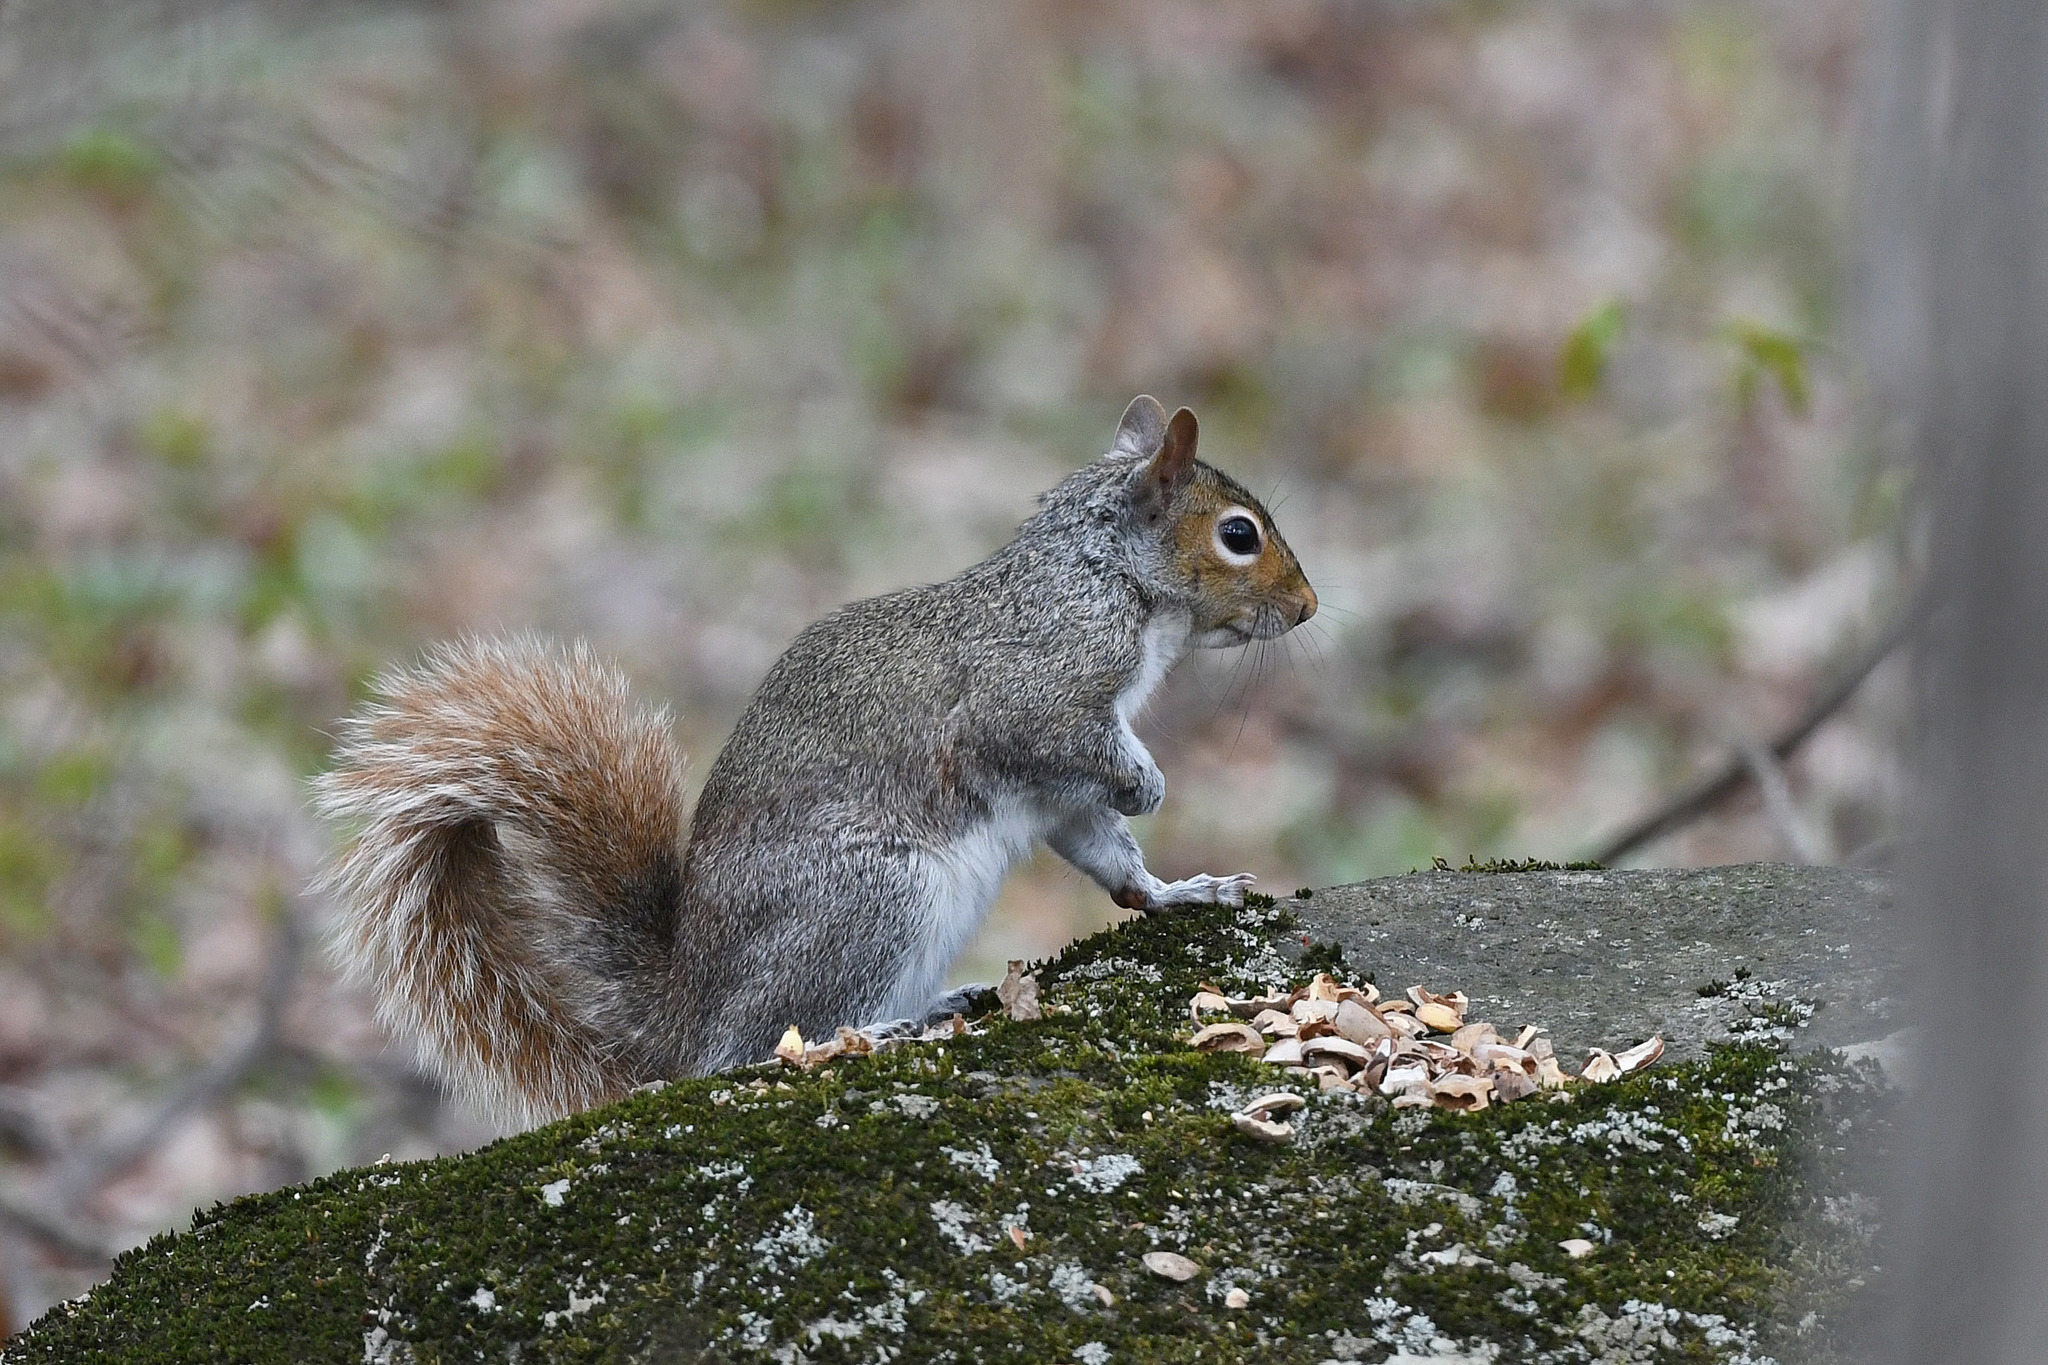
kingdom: Animalia
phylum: Chordata
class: Mammalia
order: Rodentia
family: Sciuridae
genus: Sciurus
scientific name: Sciurus carolinensis
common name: Eastern gray squirrel
